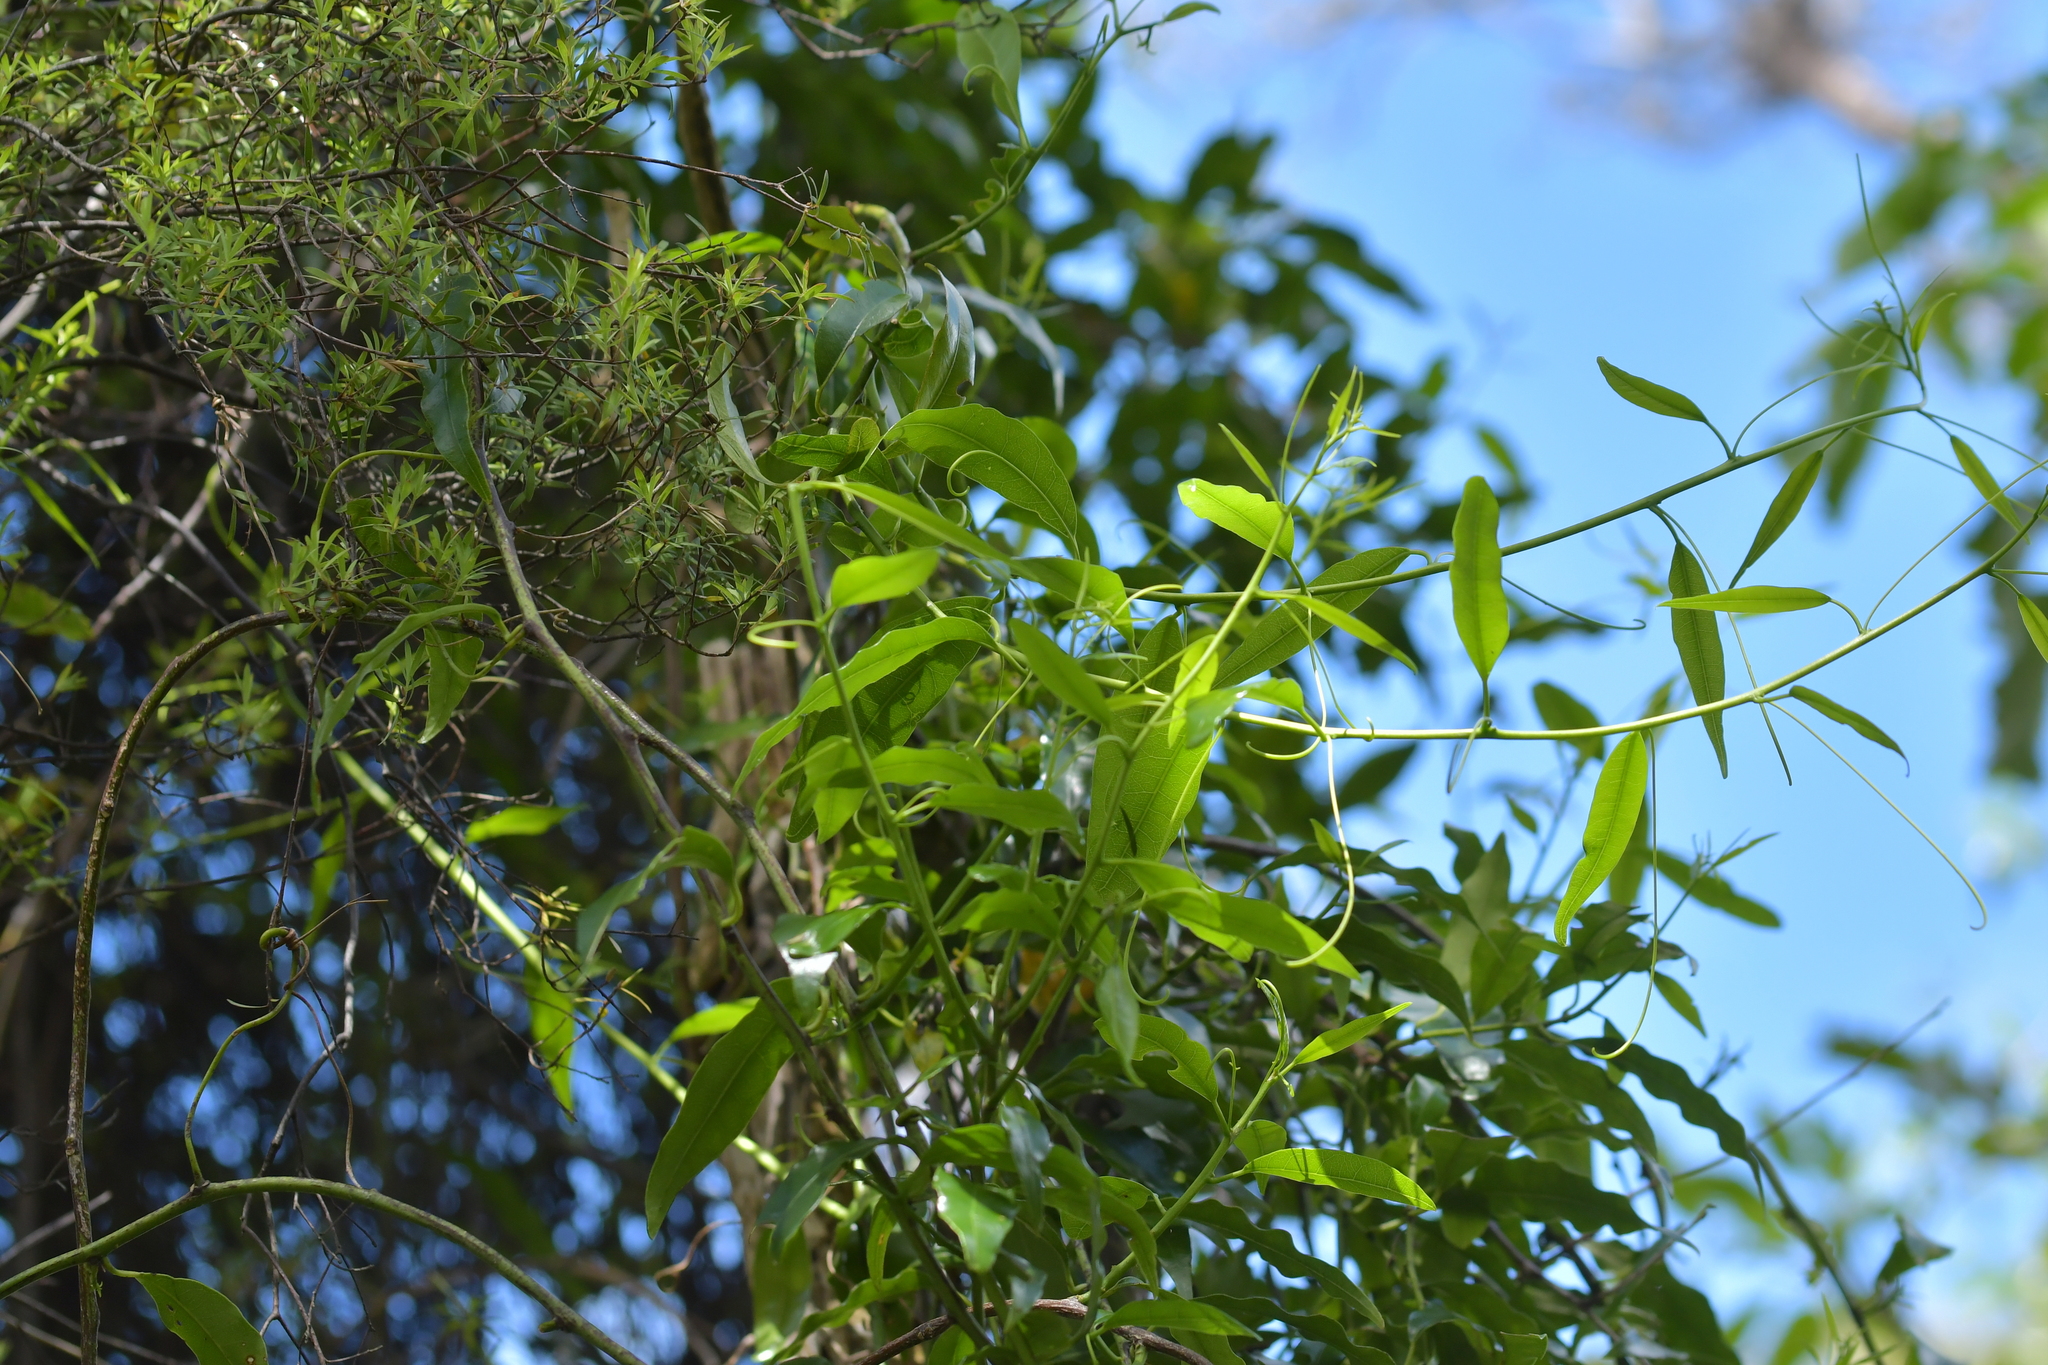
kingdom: Plantae
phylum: Tracheophyta
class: Magnoliopsida
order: Malpighiales
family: Passifloraceae
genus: Passiflora
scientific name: Passiflora tetrandra
